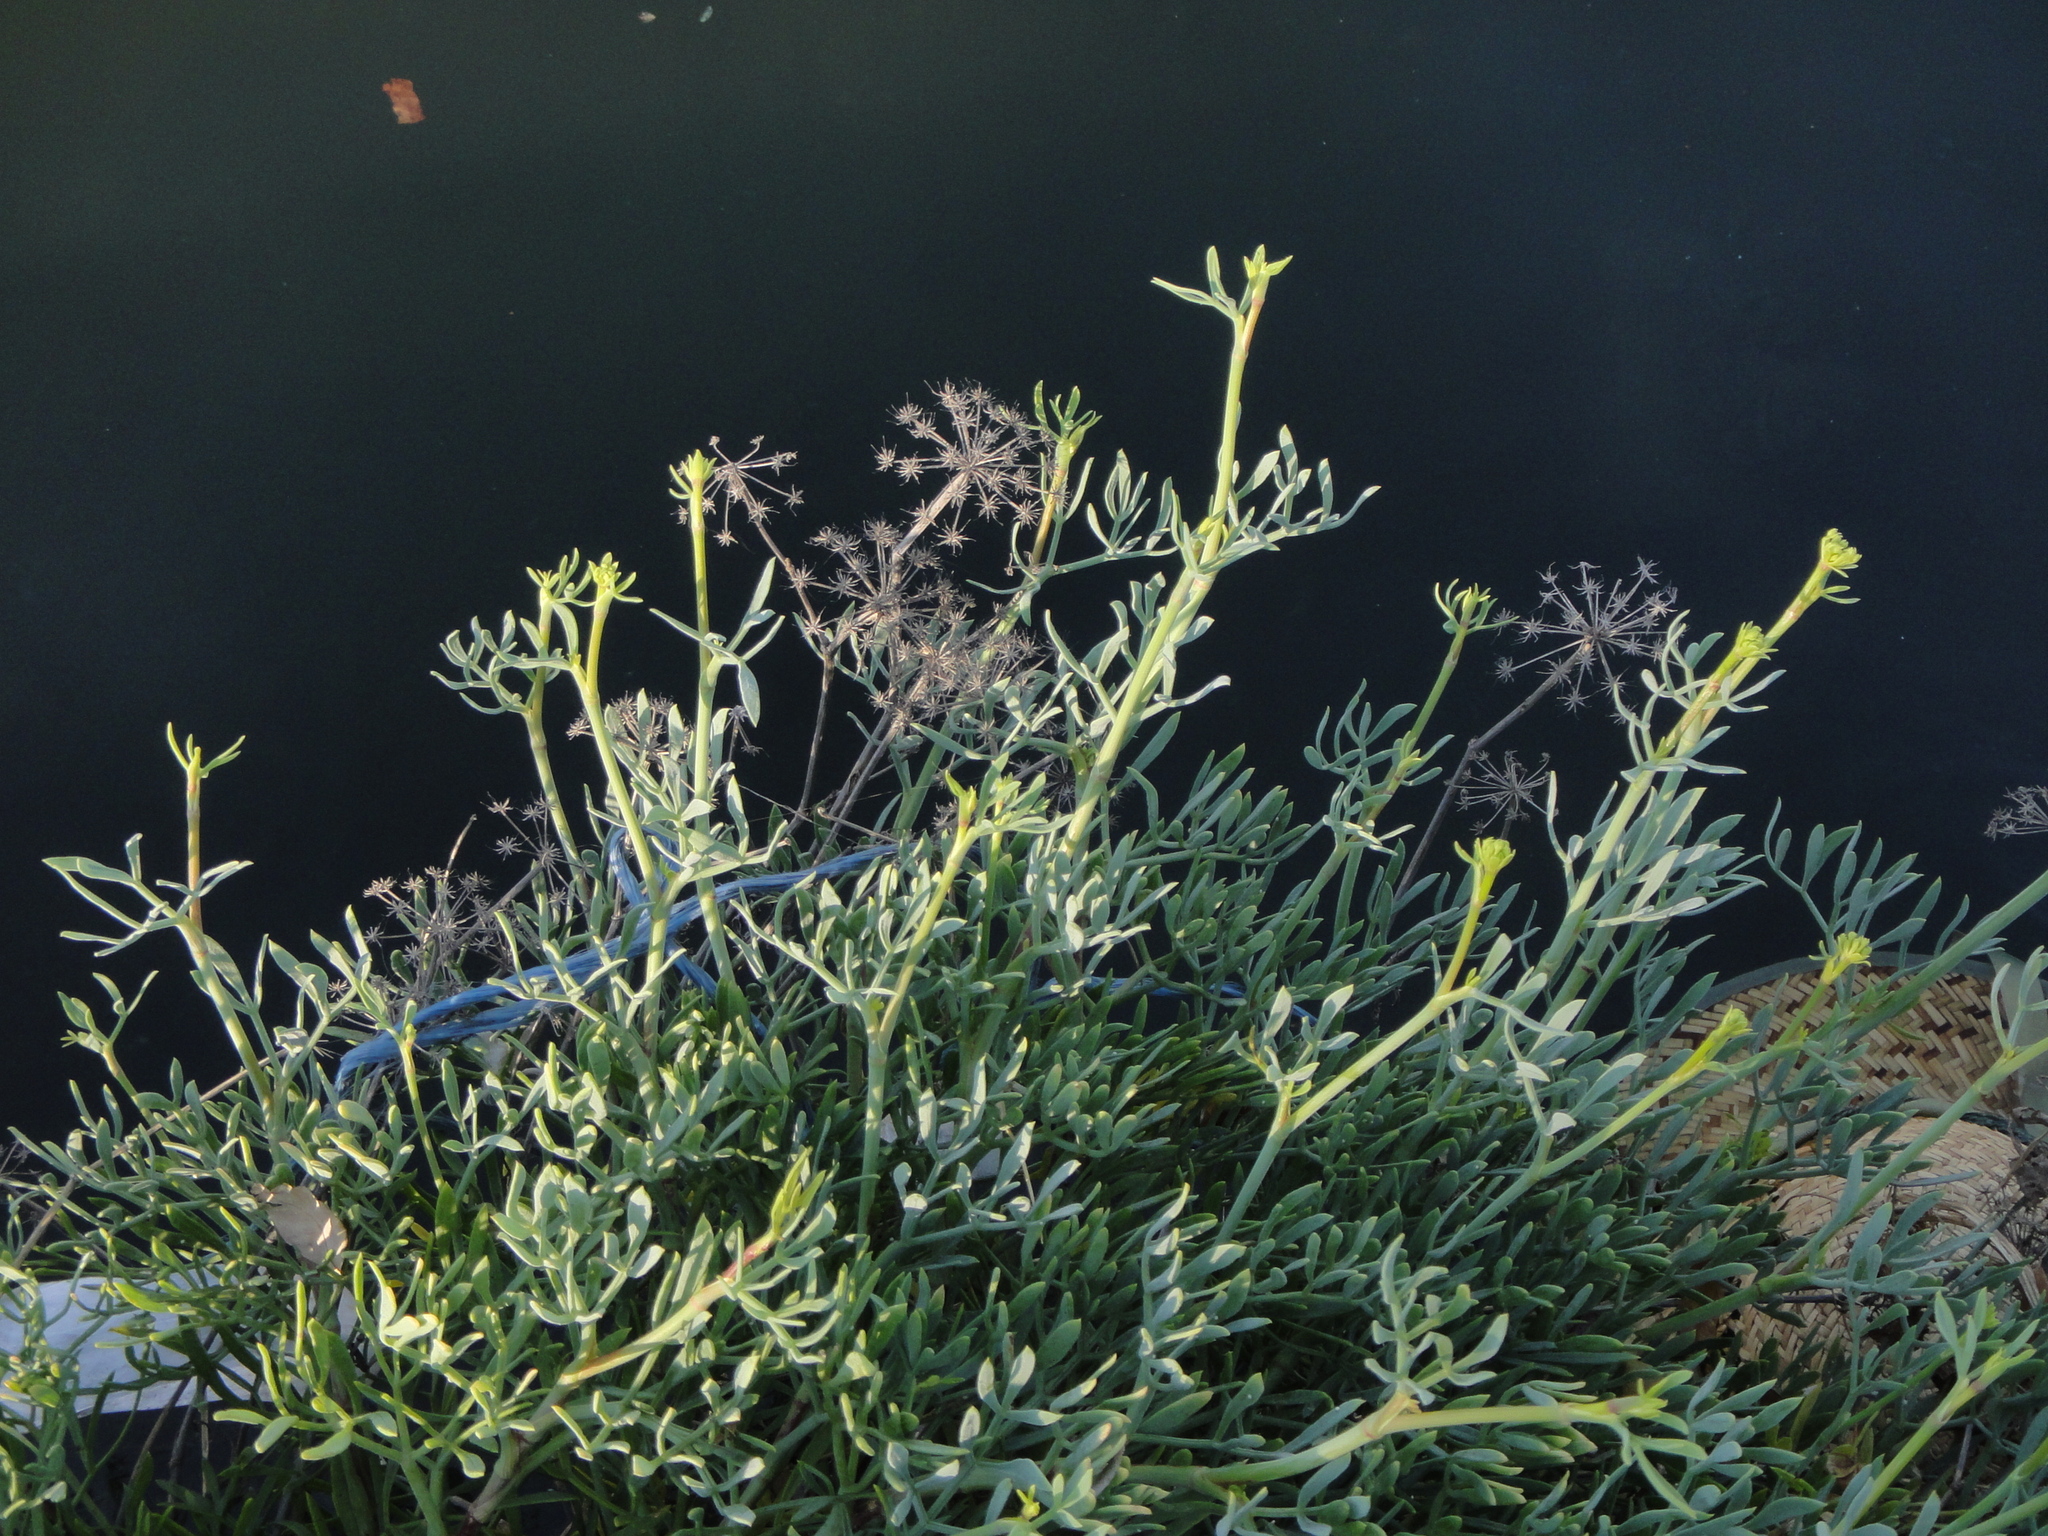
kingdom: Plantae
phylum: Tracheophyta
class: Magnoliopsida
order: Apiales
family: Apiaceae
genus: Crithmum
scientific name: Crithmum maritimum
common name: Rock samphire
